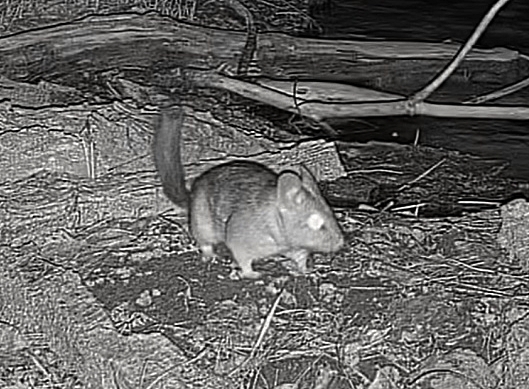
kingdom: Animalia
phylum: Chordata
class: Mammalia
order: Rodentia
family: Cricetidae
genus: Neotoma
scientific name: Neotoma cinerea
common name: Bushy-tailed woodrat
